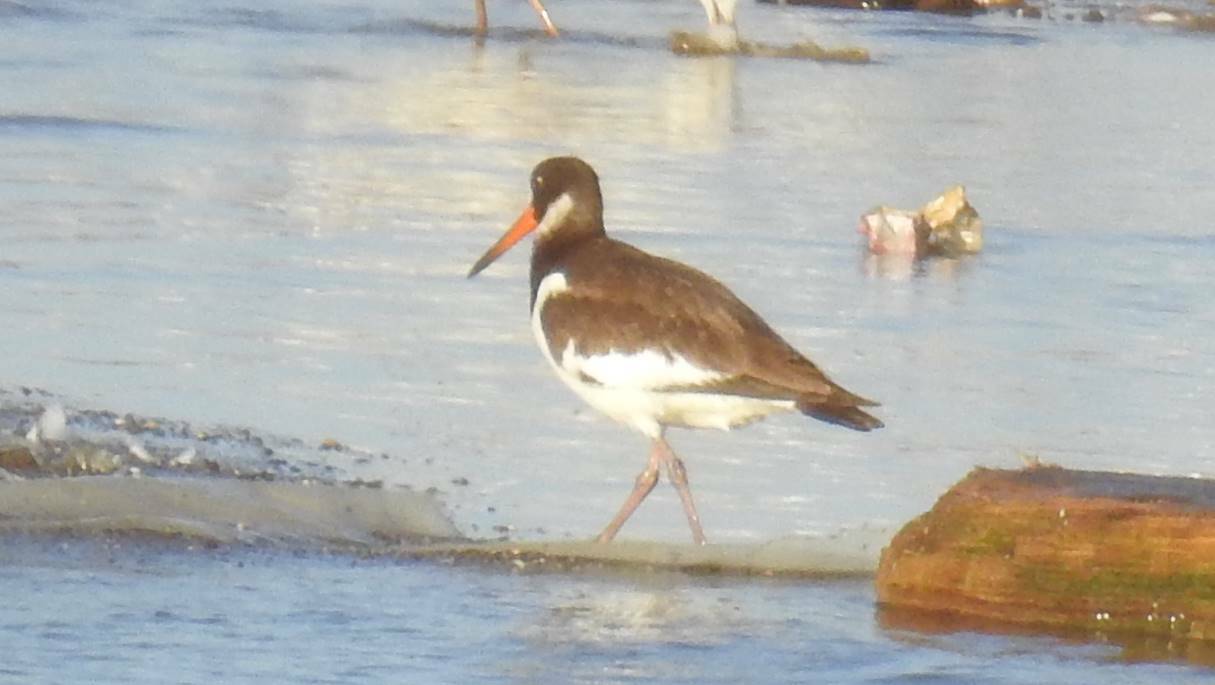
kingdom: Animalia
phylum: Chordata
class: Aves
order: Charadriiformes
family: Haematopodidae
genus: Haematopus
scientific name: Haematopus ostralegus
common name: Eurasian oystercatcher
